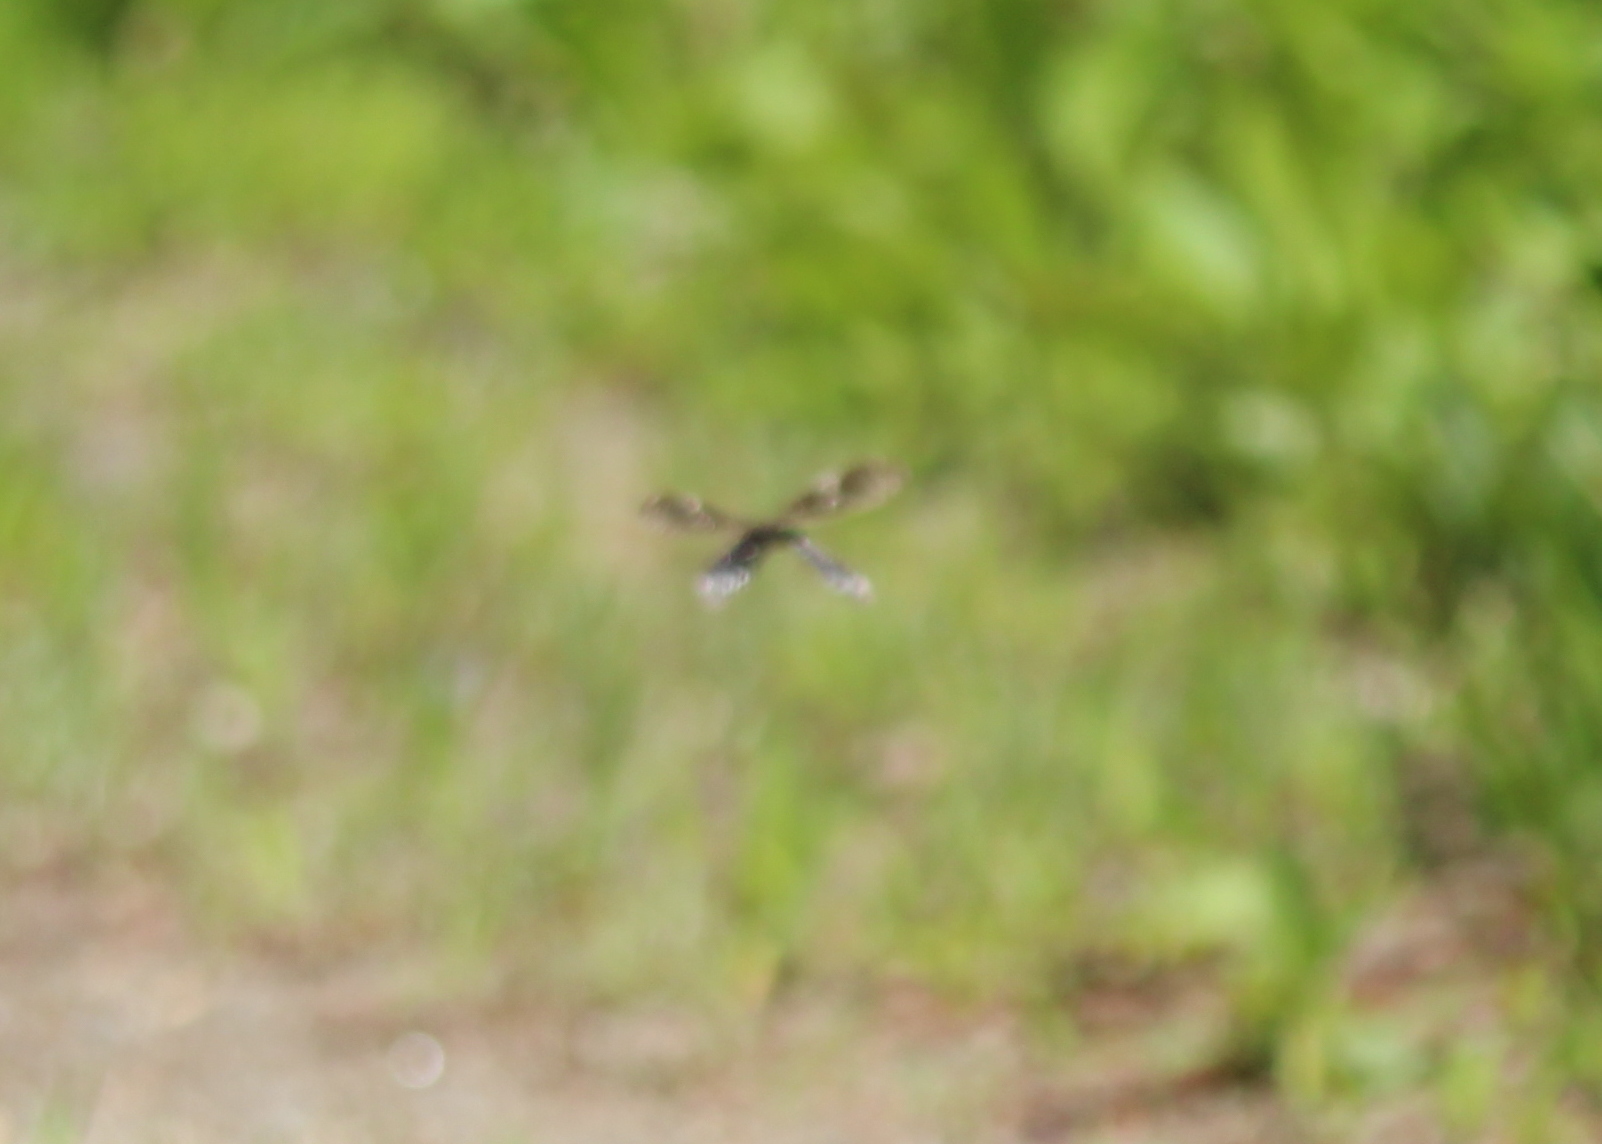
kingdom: Animalia
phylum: Arthropoda
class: Insecta
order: Megaloptera
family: Corydalidae
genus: Nigronia
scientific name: Nigronia serricornis
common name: Serrate dark fishfly
